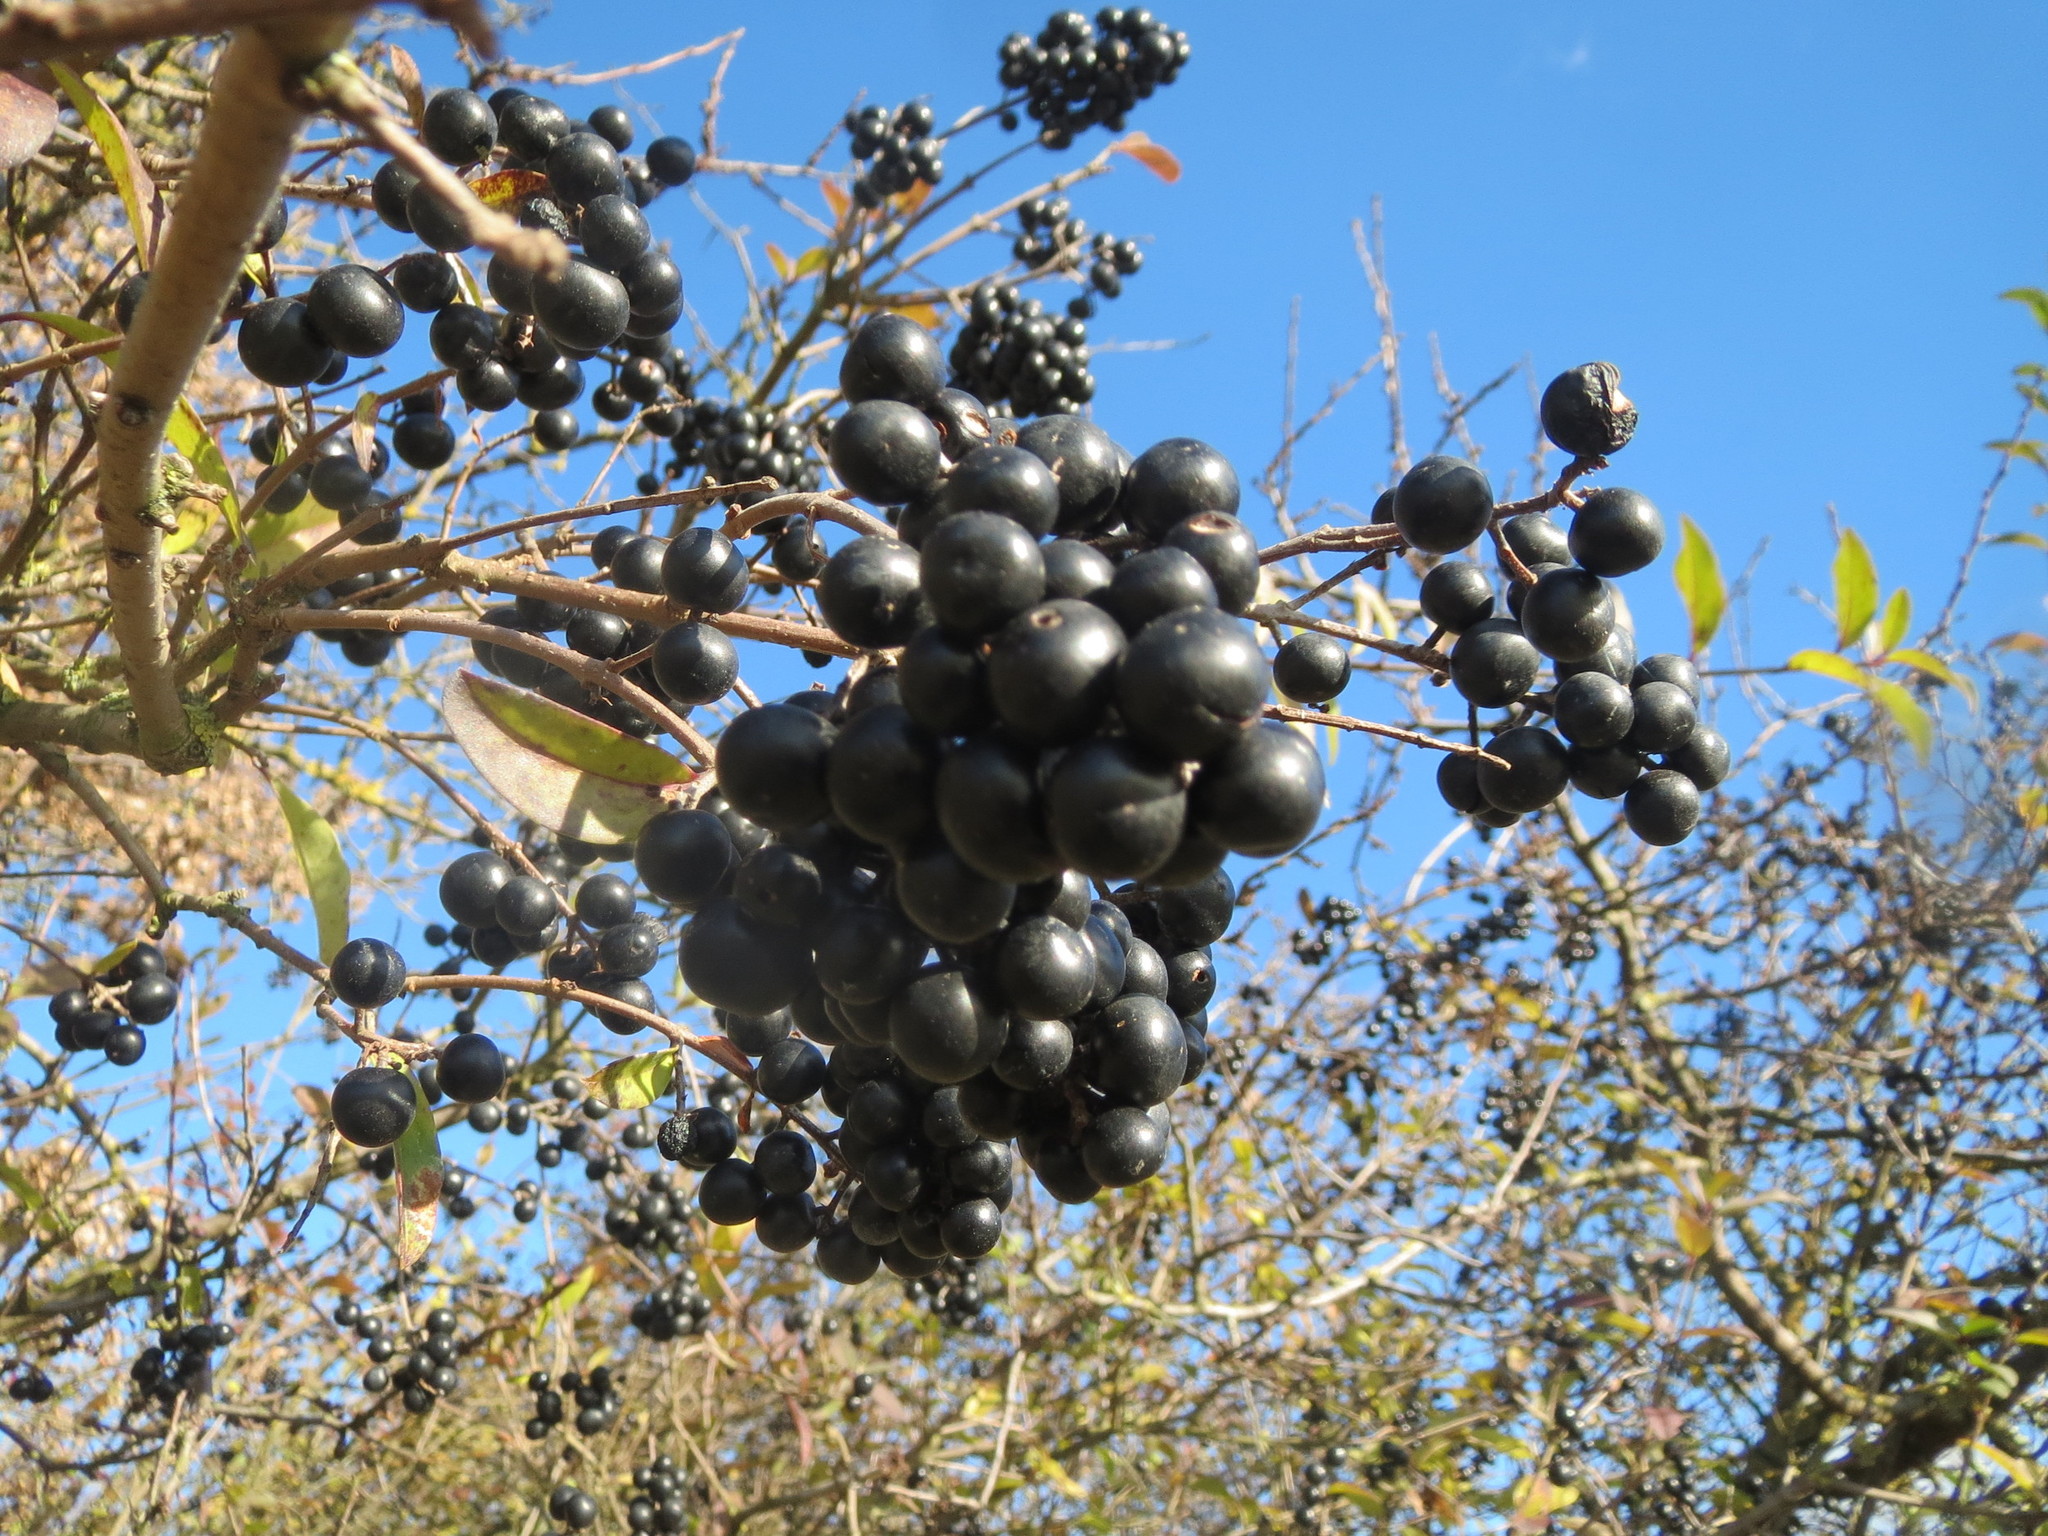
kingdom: Plantae
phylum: Tracheophyta
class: Magnoliopsida
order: Lamiales
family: Oleaceae
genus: Ligustrum
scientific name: Ligustrum vulgare
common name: Wild privet
